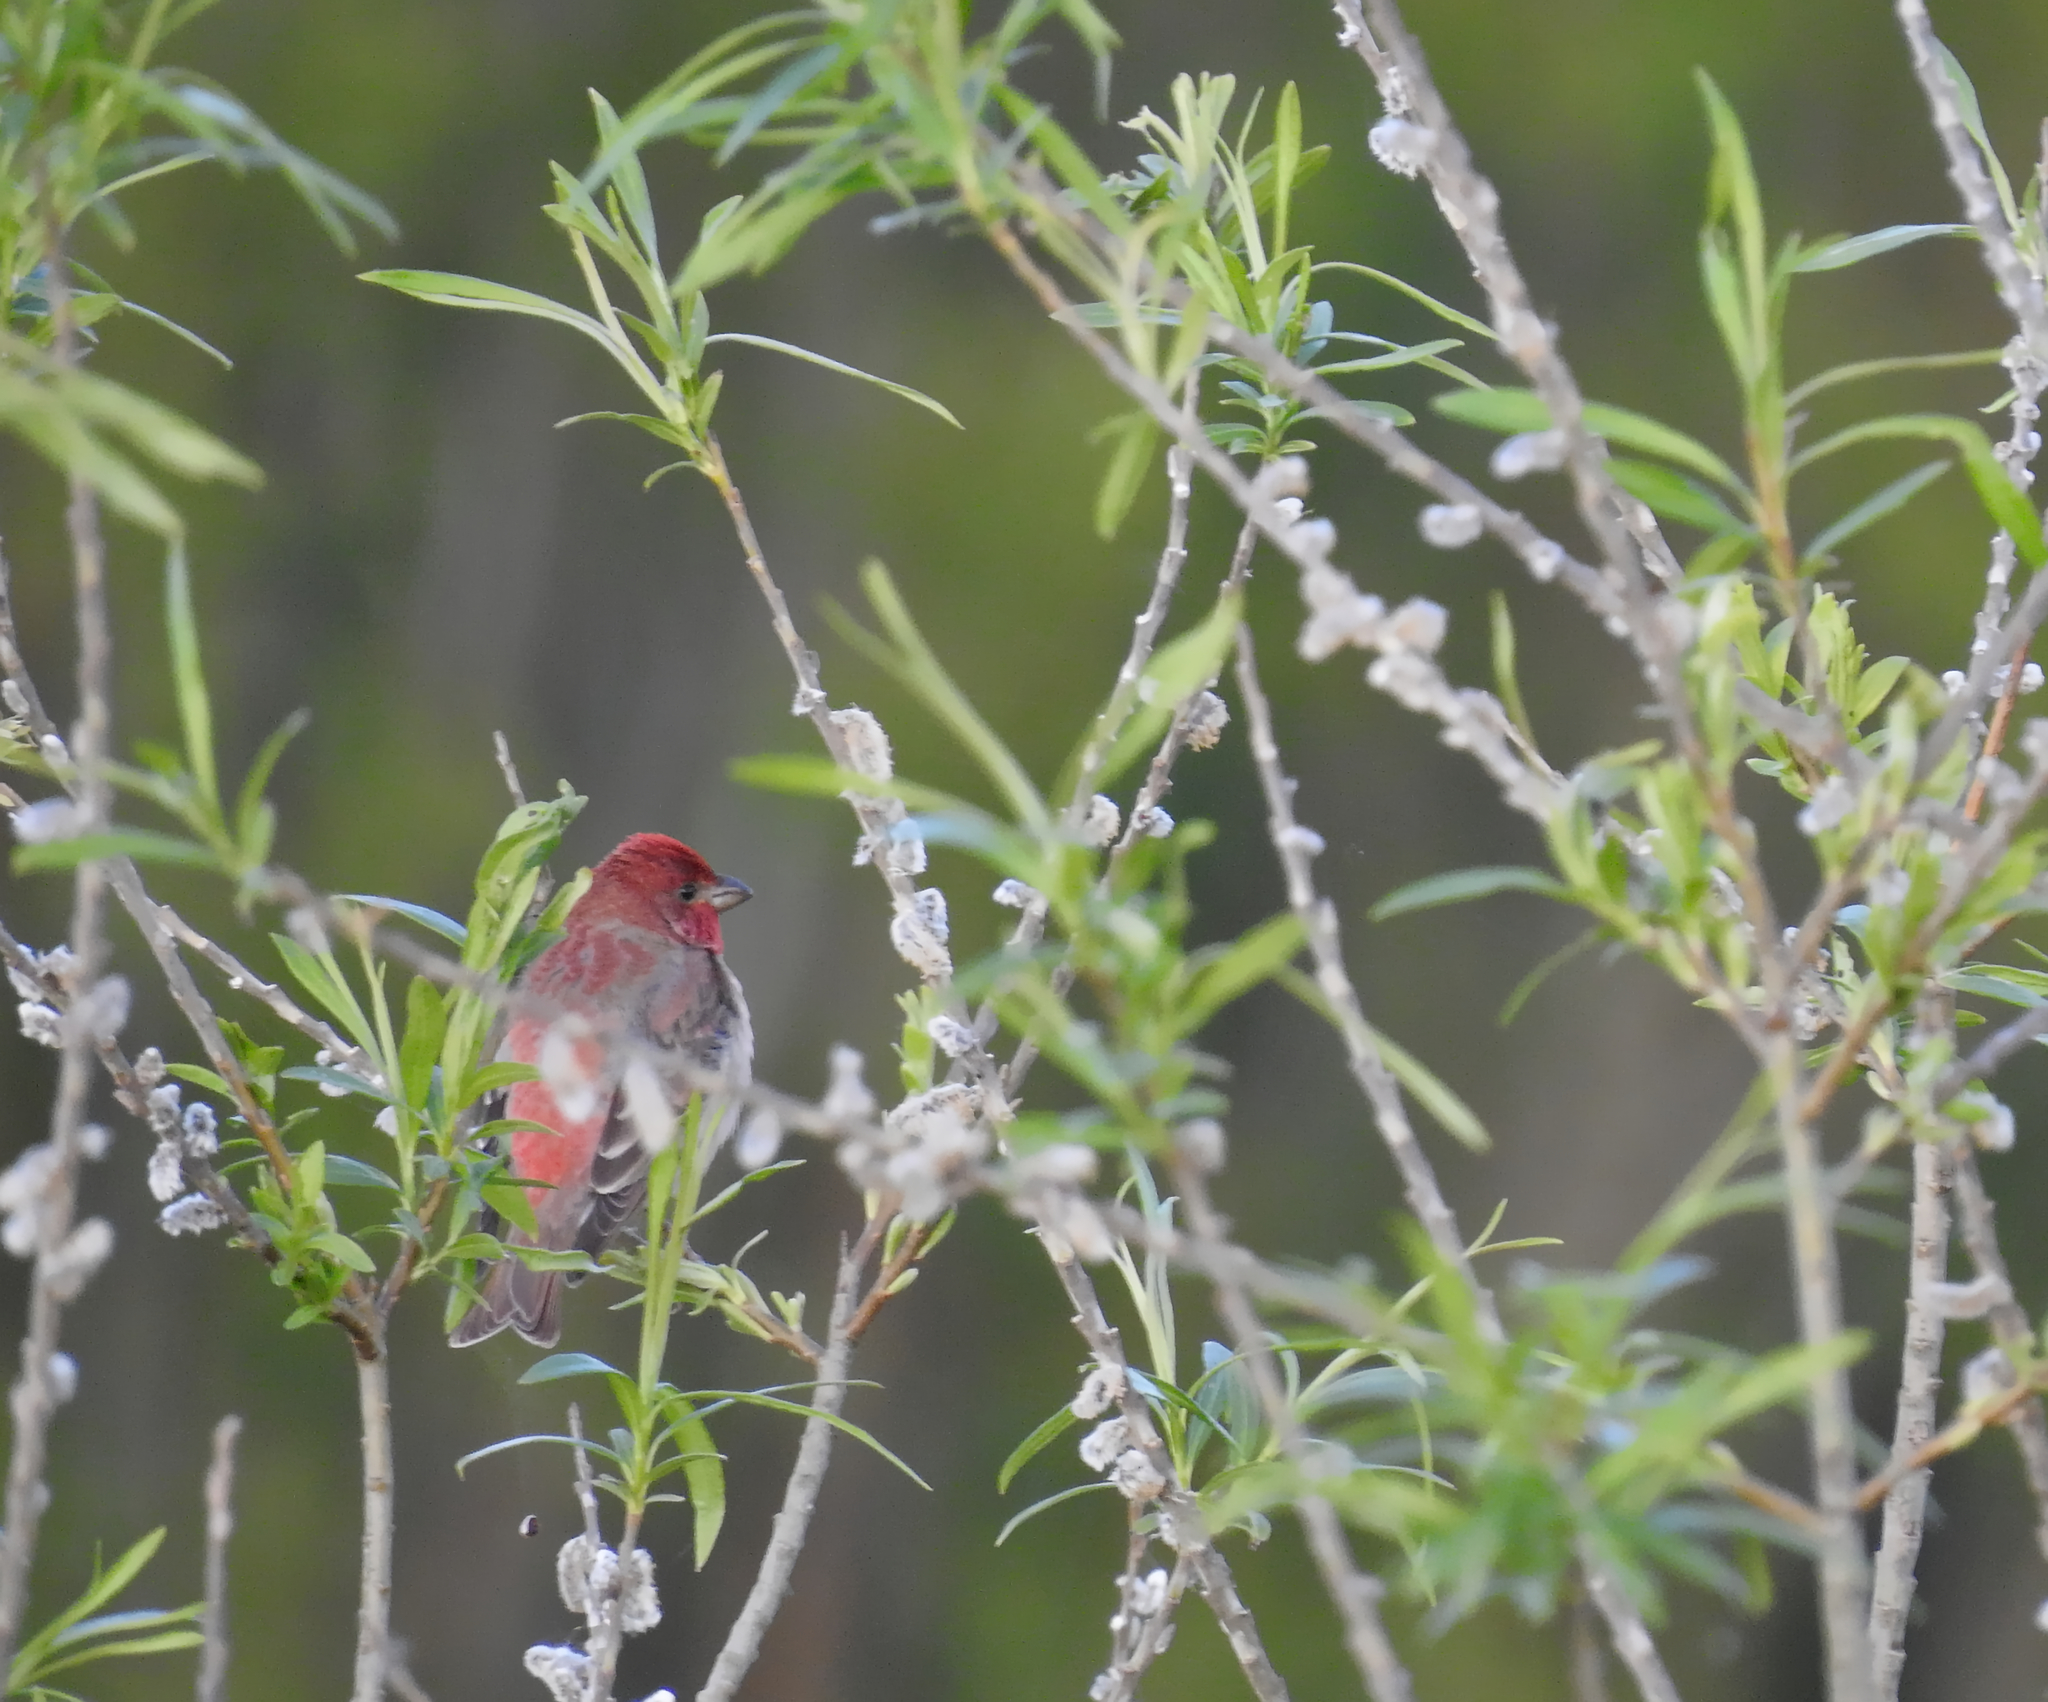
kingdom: Animalia
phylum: Chordata
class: Aves
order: Passeriformes
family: Fringillidae
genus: Carpodacus
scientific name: Carpodacus erythrinus
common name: Common rosefinch
